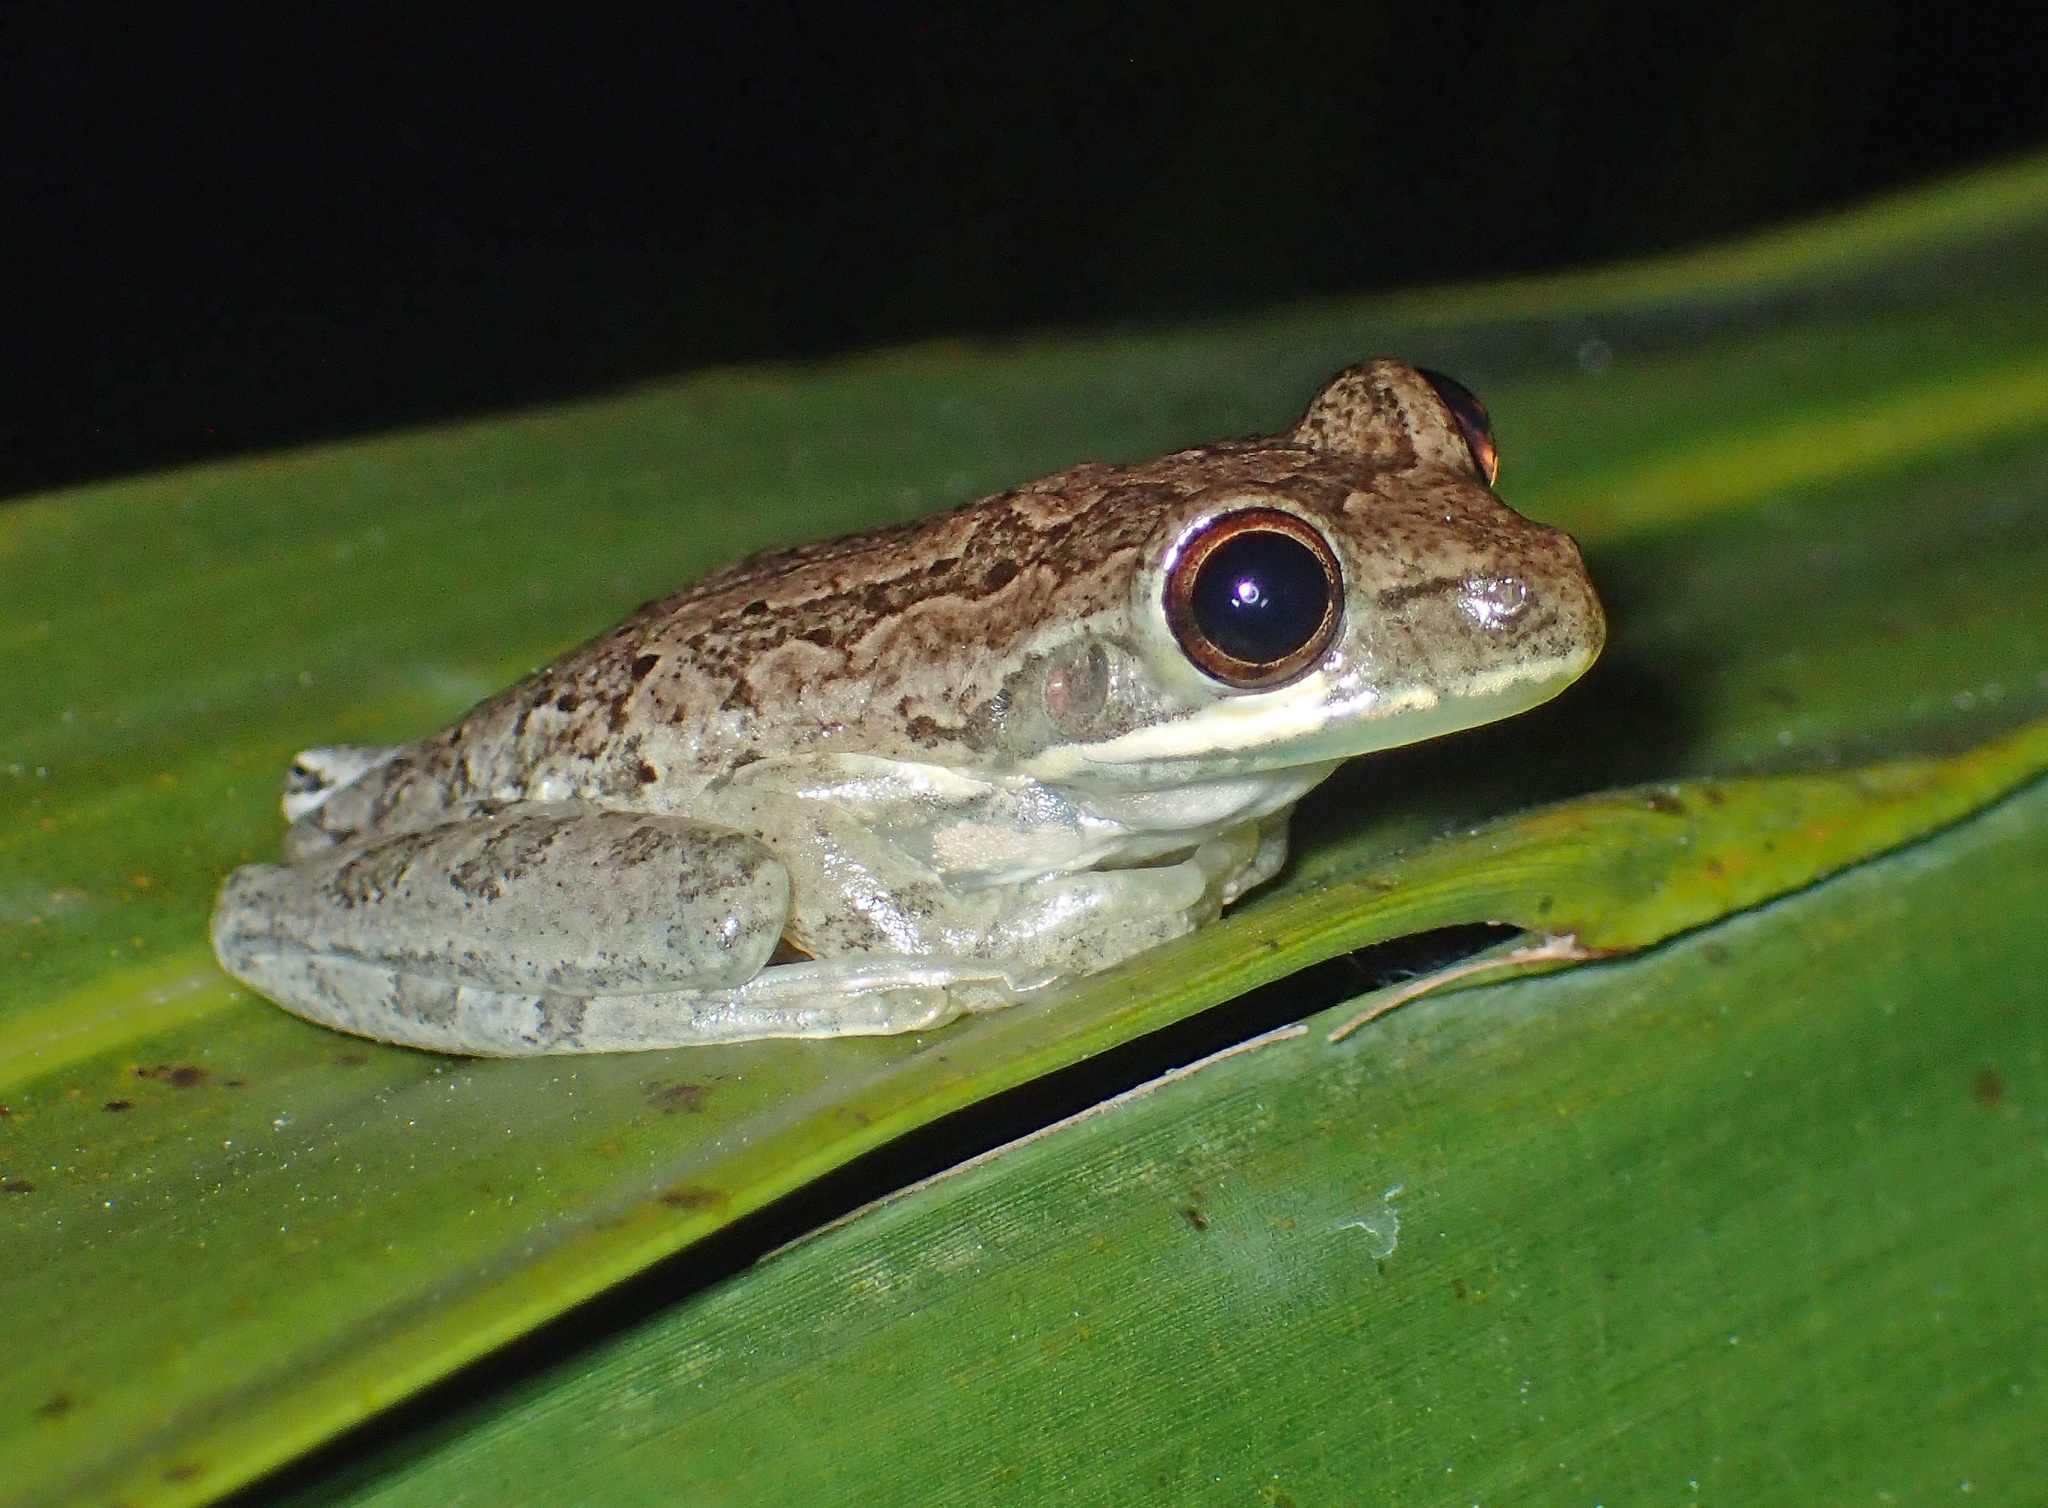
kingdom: Animalia
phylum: Chordata
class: Amphibia
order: Anura
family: Hylidae
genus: Osteopilus
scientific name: Osteopilus septentrionalis
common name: Cuban treefrog
